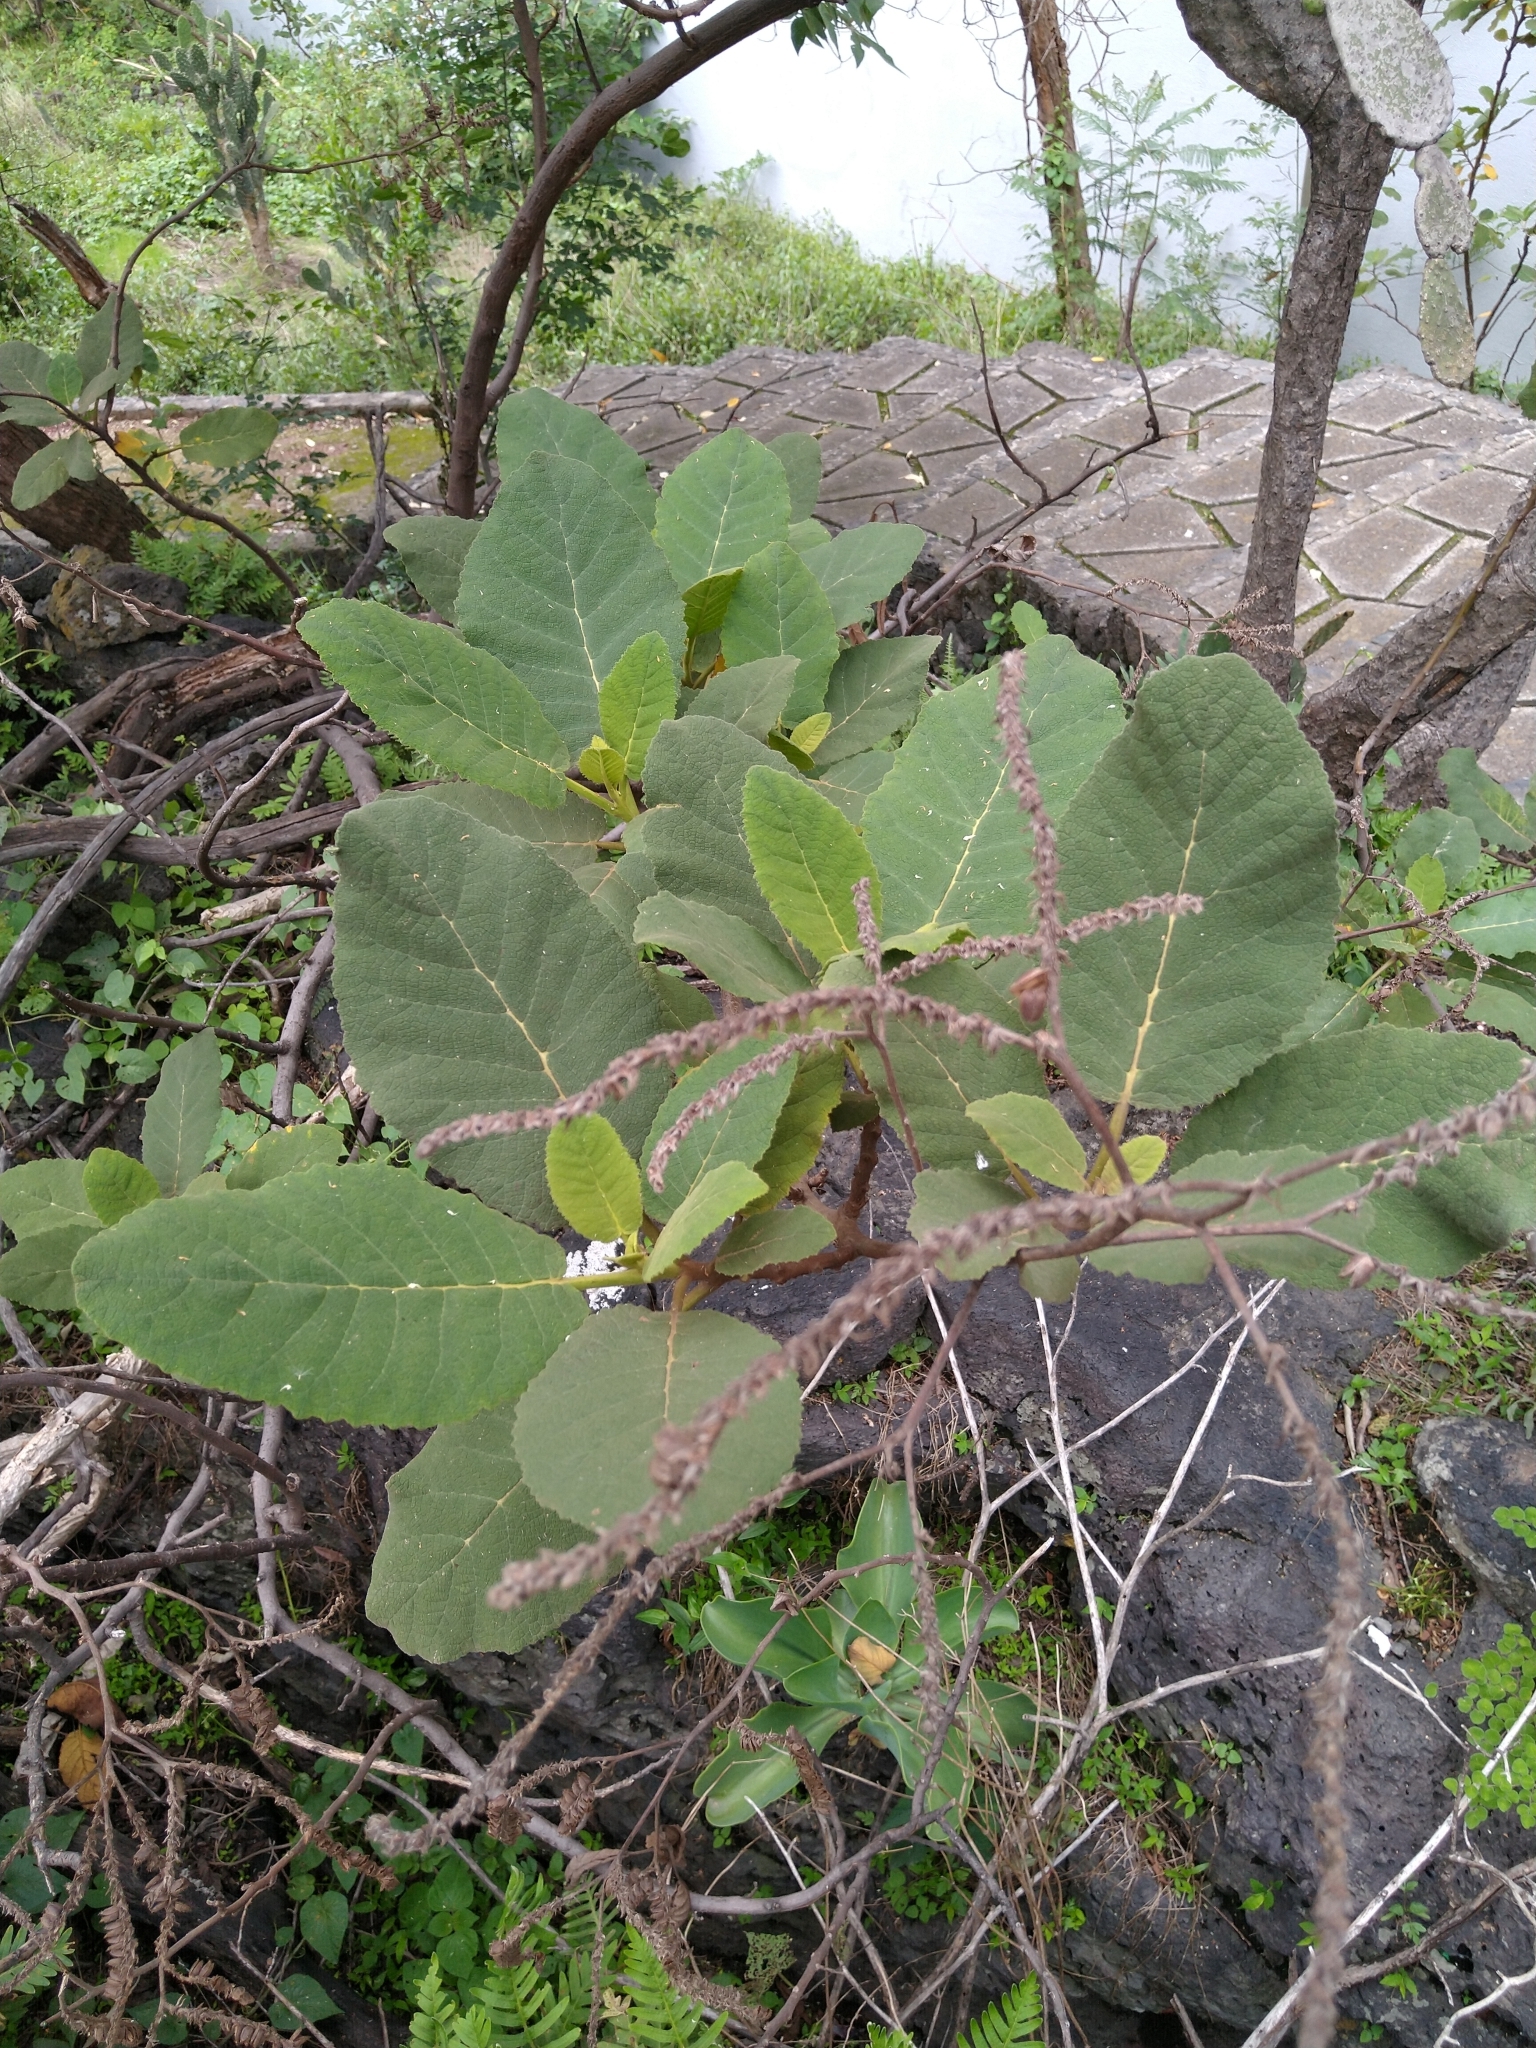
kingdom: Plantae
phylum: Tracheophyta
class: Magnoliopsida
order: Boraginales
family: Namaceae
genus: Wigandia
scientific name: Wigandia urens
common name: Caracus wigandia
